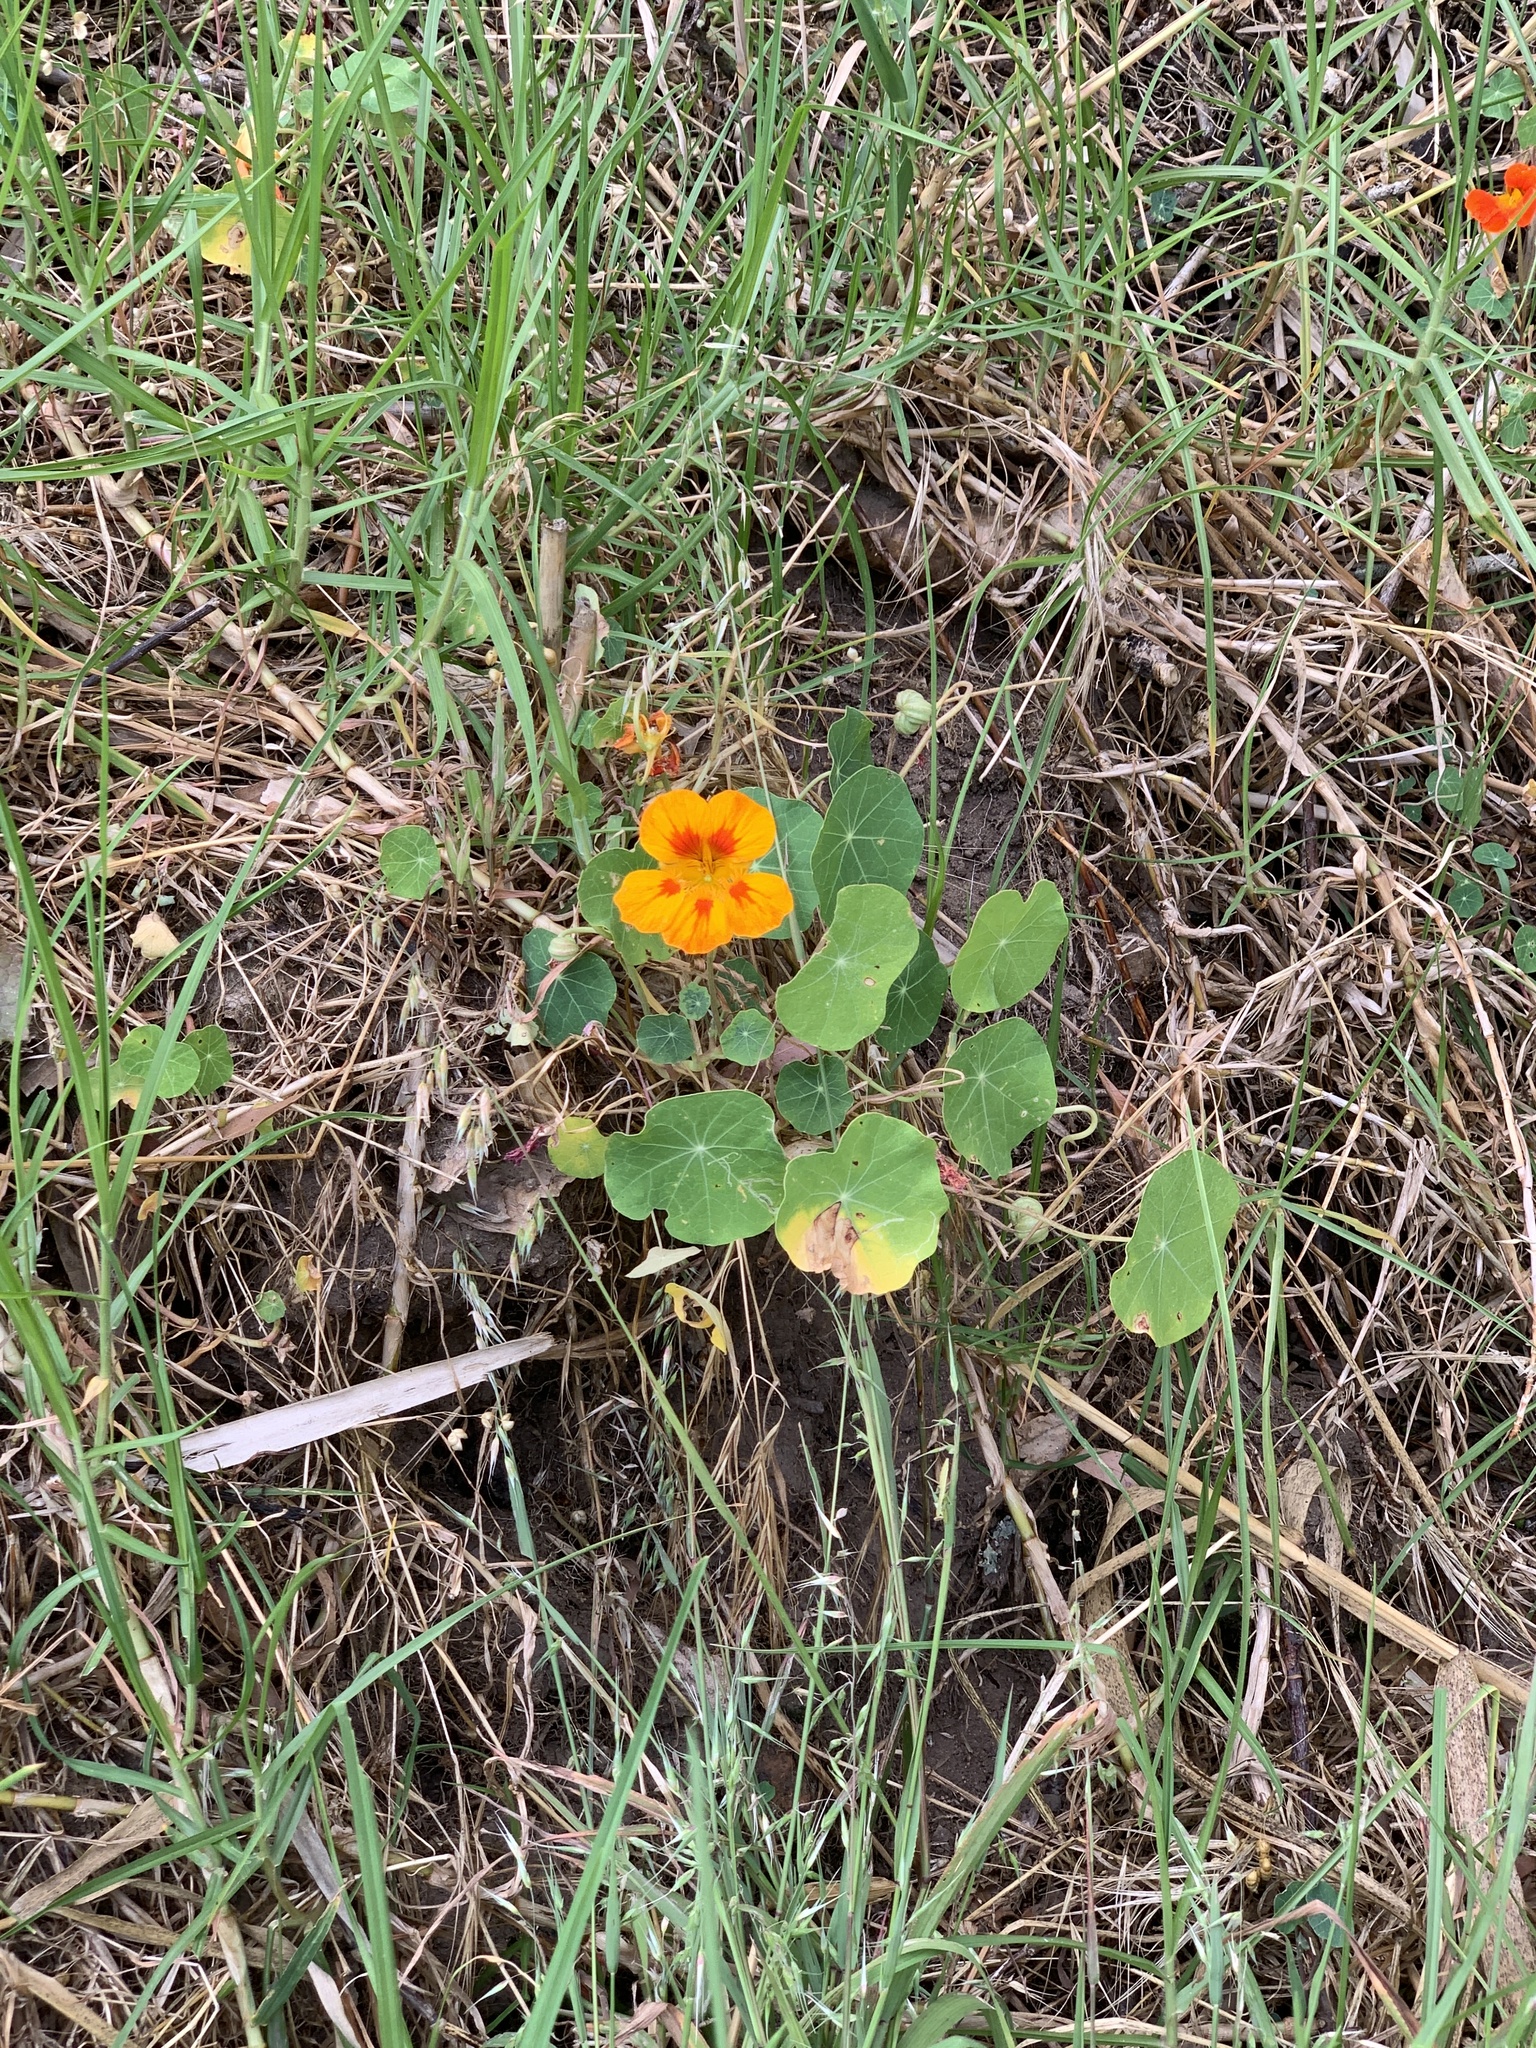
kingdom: Plantae
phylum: Tracheophyta
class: Magnoliopsida
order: Brassicales
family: Tropaeolaceae
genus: Tropaeolum
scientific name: Tropaeolum majus
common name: Nasturtium
